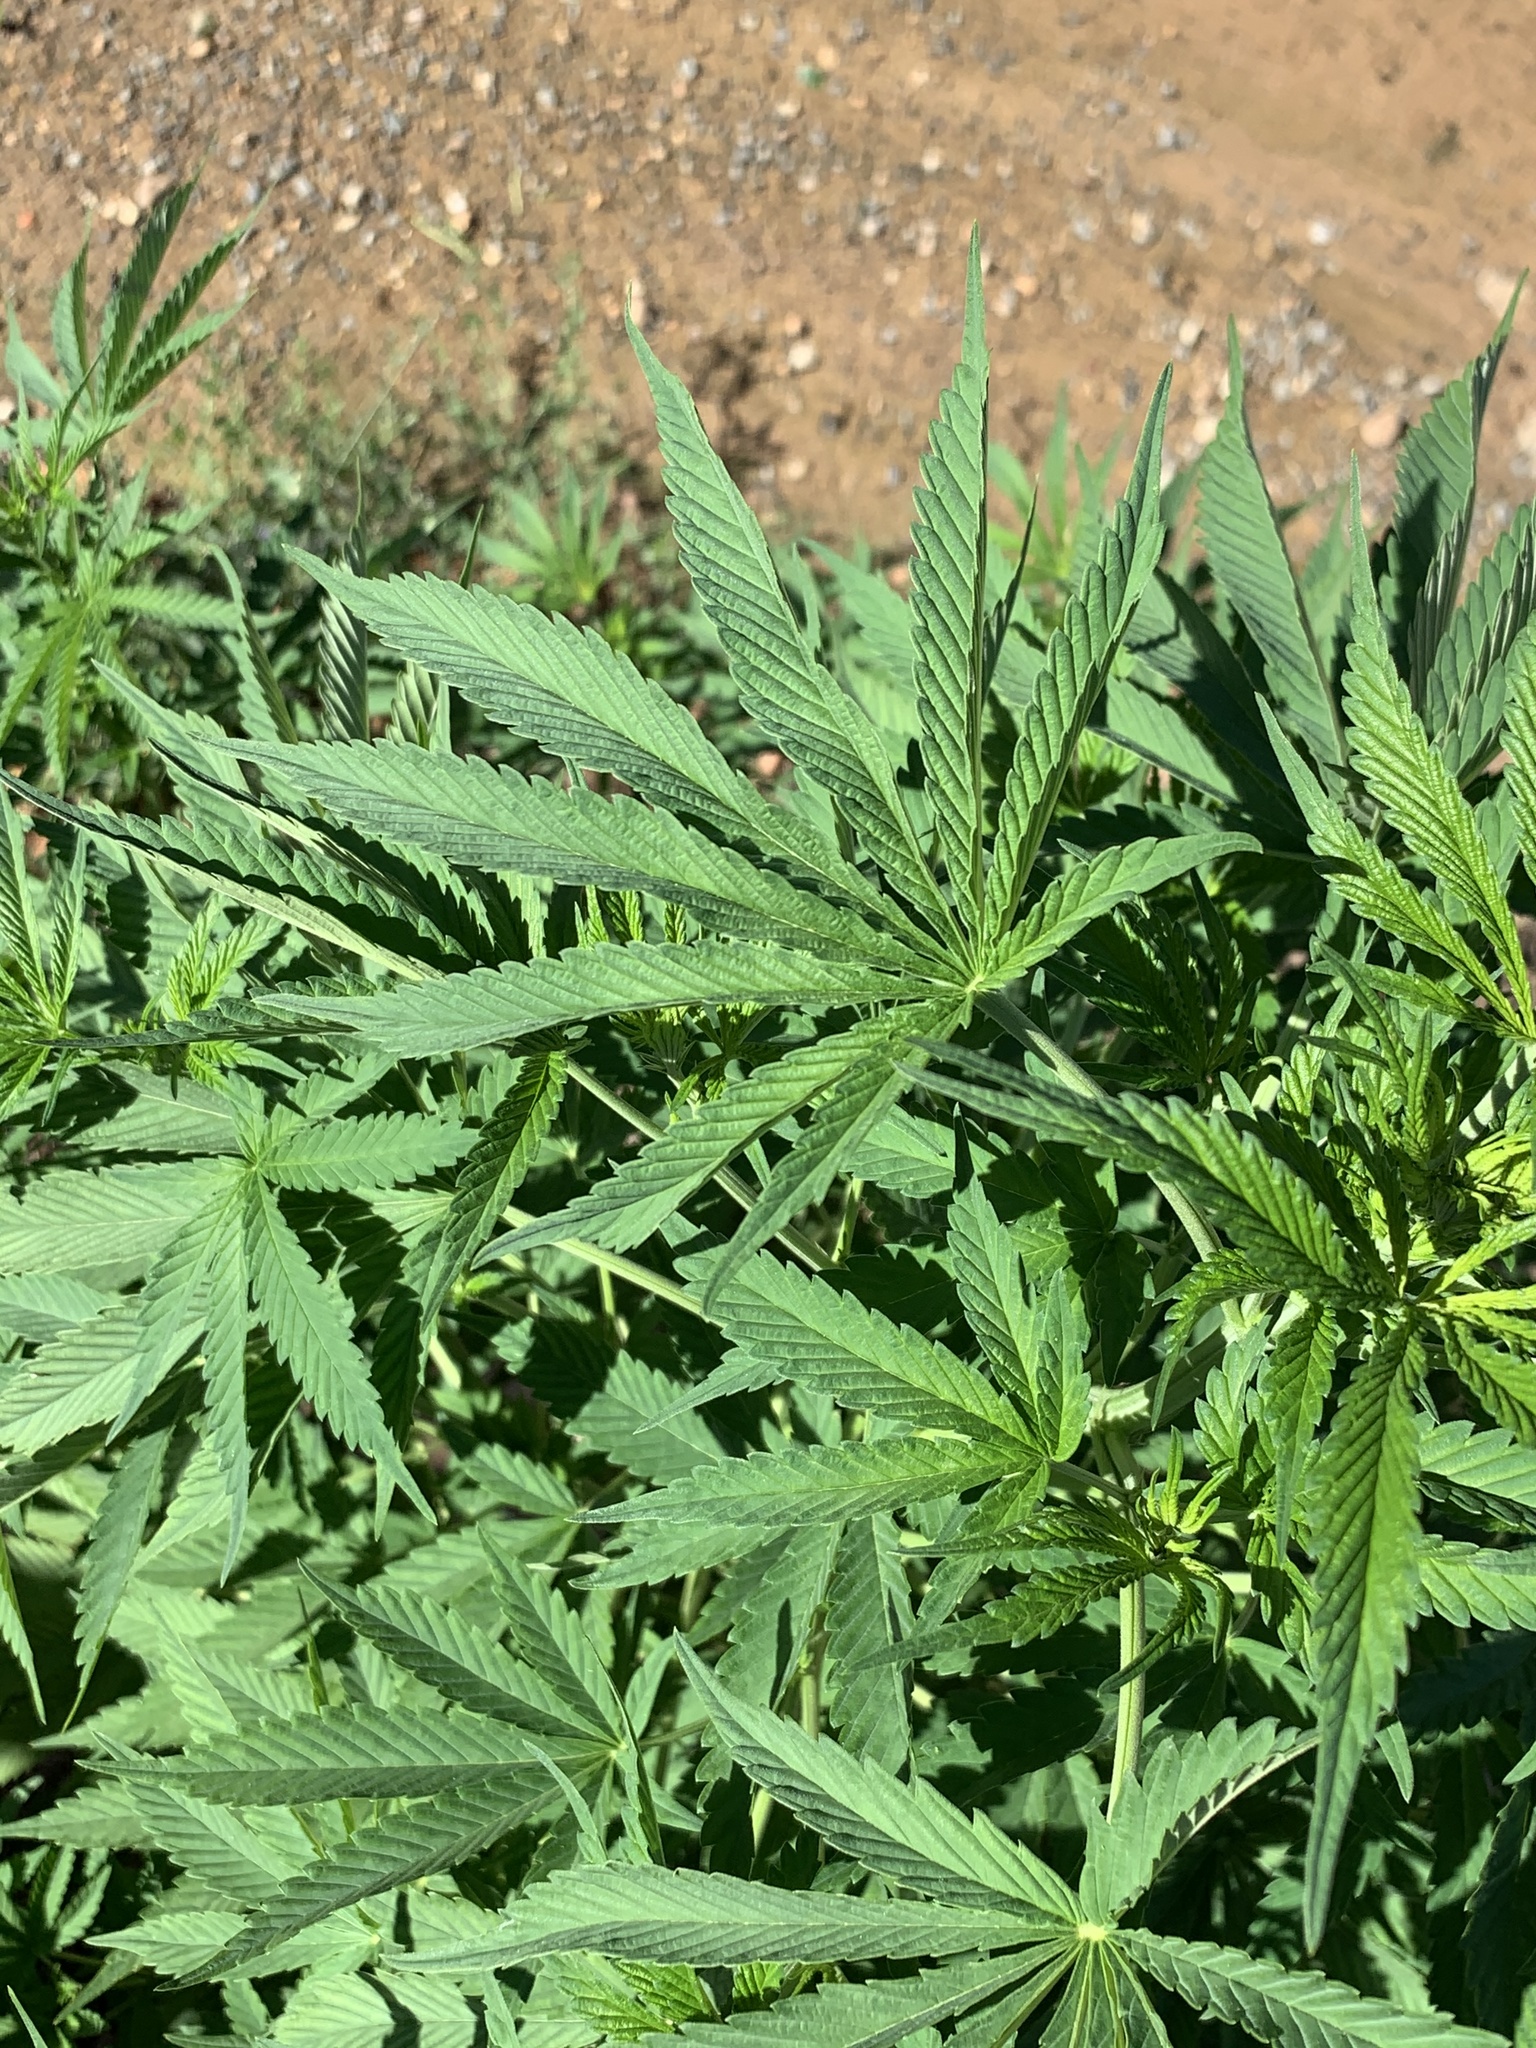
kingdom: Plantae
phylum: Tracheophyta
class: Magnoliopsida
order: Rosales
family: Cannabaceae
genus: Cannabis
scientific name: Cannabis sativa
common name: Hemp
